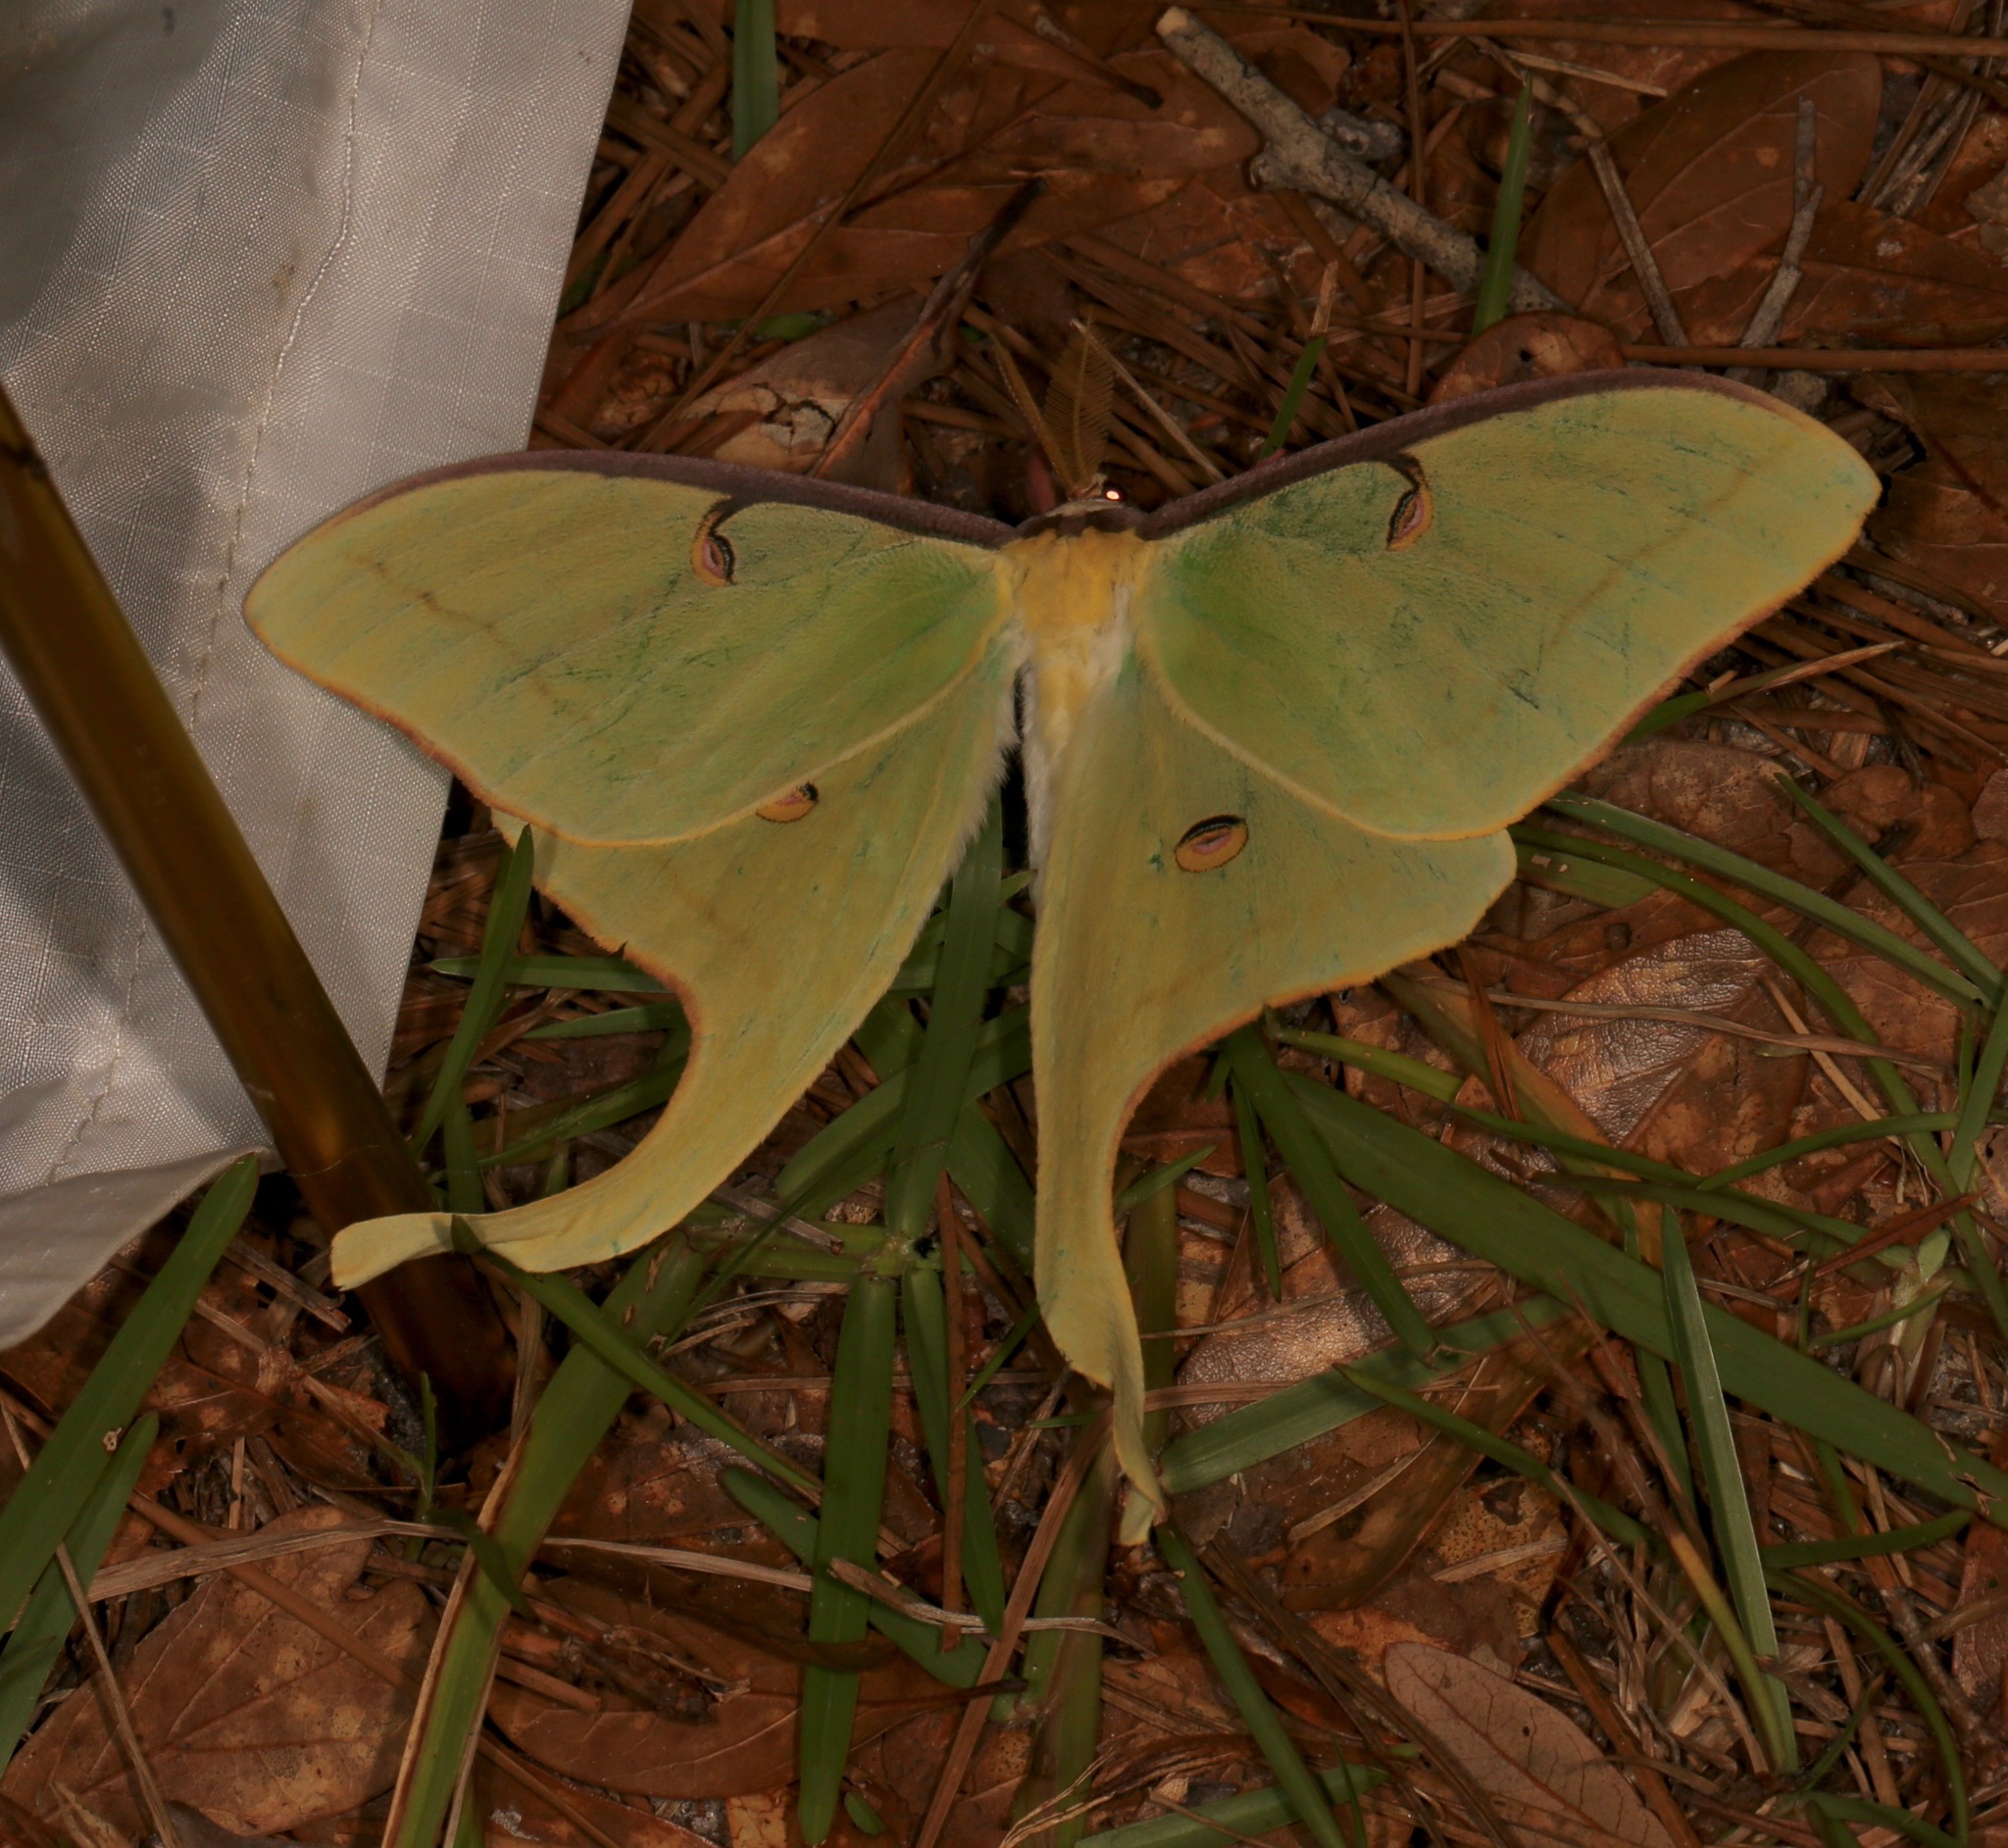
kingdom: Animalia
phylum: Arthropoda
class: Insecta
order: Lepidoptera
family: Saturniidae
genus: Actias
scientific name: Actias luna
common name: Luna moth
